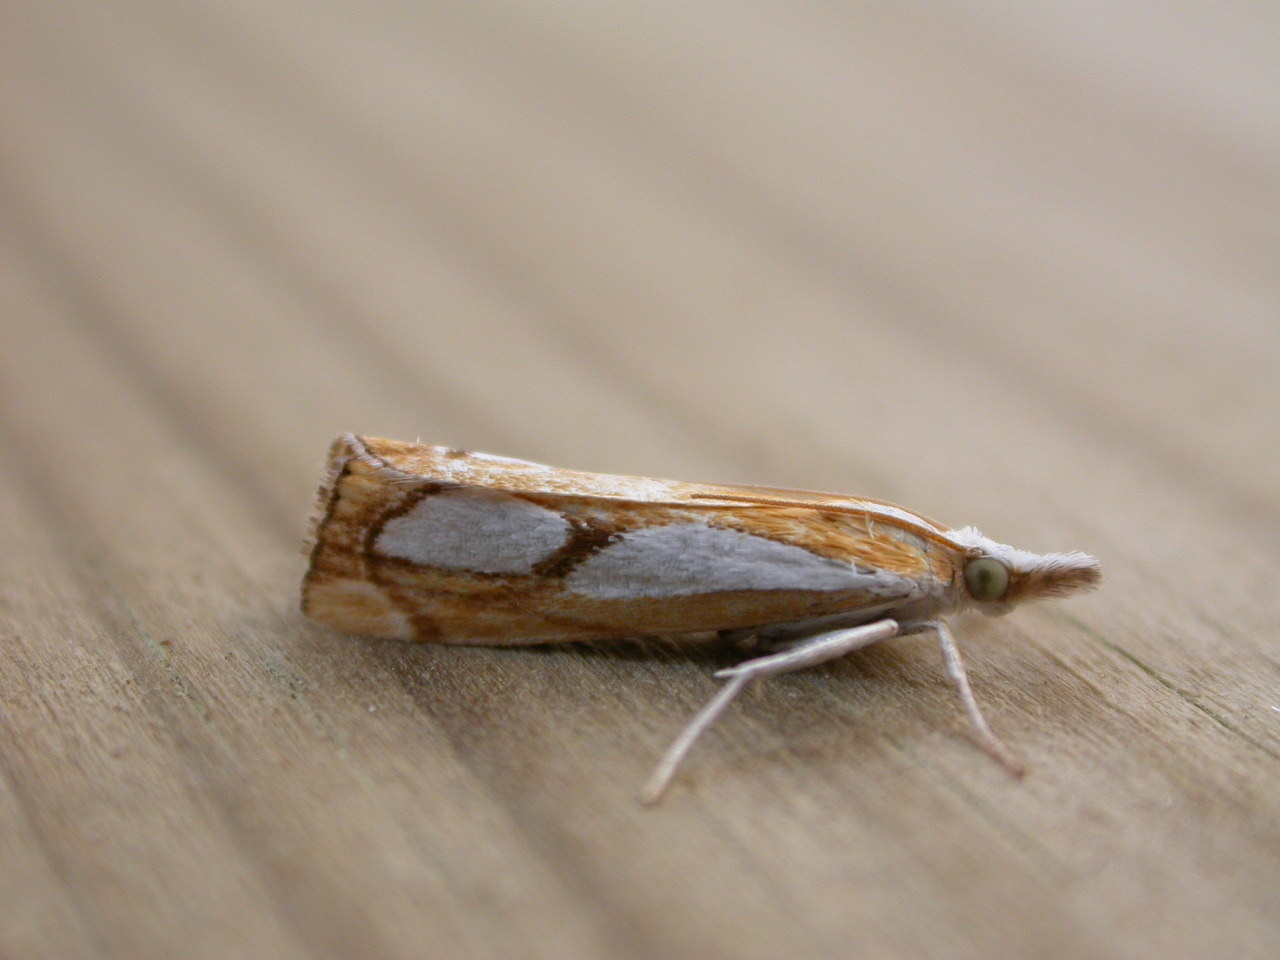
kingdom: Animalia
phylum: Arthropoda
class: Insecta
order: Lepidoptera
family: Crambidae
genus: Catoptria
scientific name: Catoptria pinella
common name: Pearl grass-veneer
